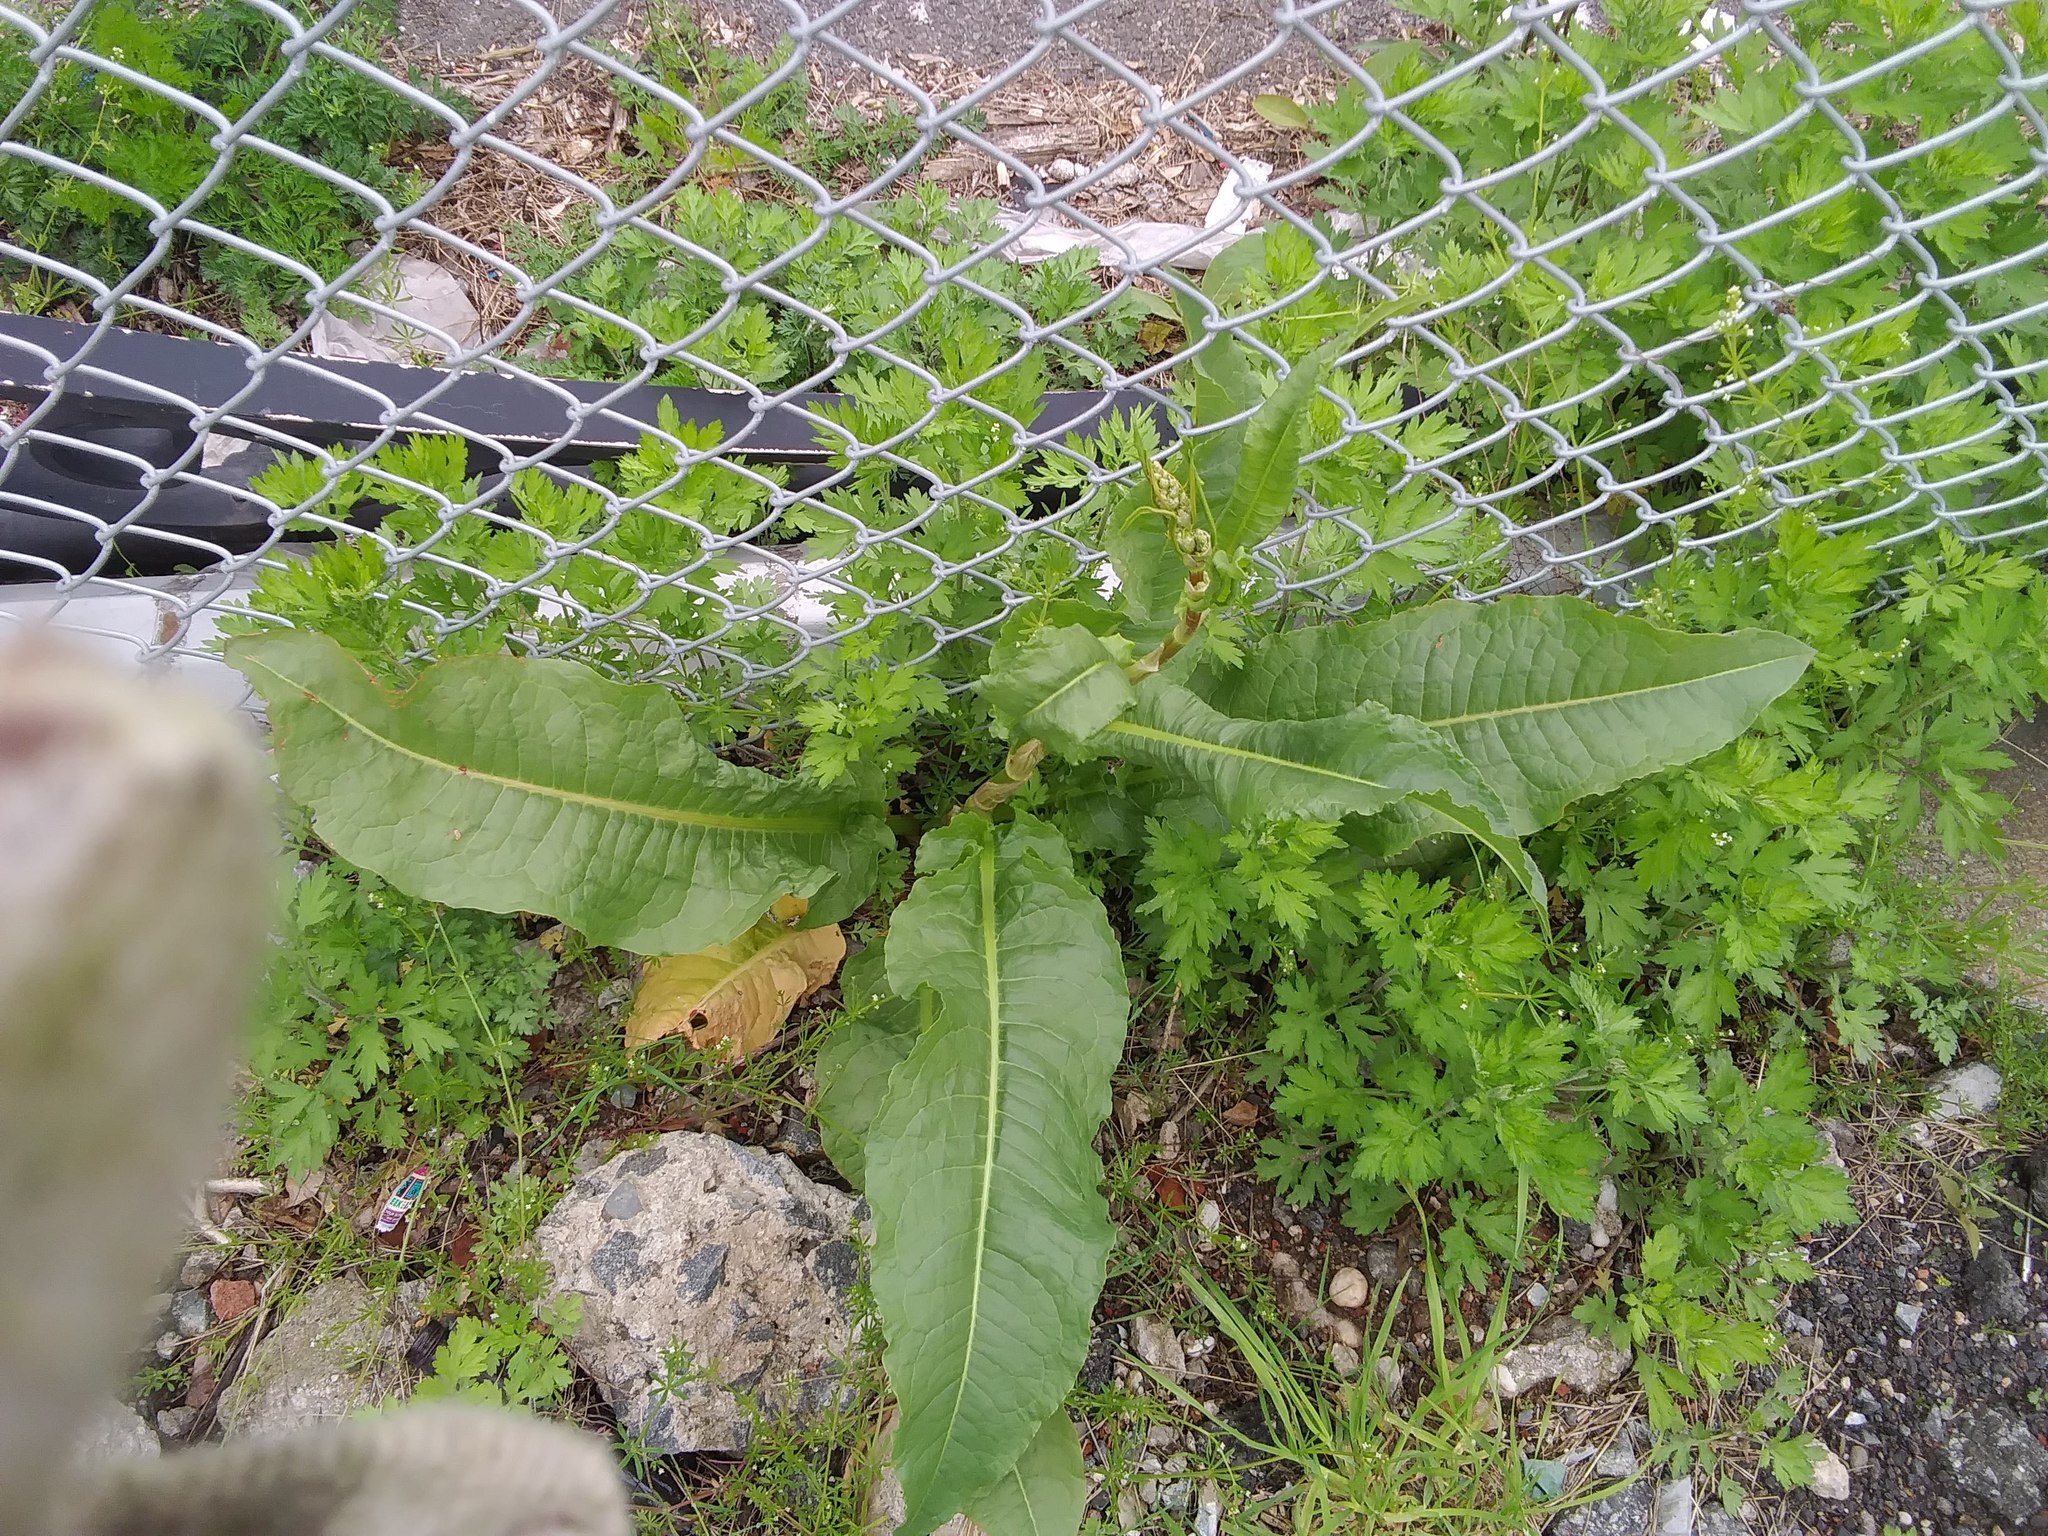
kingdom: Plantae
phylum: Tracheophyta
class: Magnoliopsida
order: Caryophyllales
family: Polygonaceae
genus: Rumex
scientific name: Rumex crispus
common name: Curled dock
